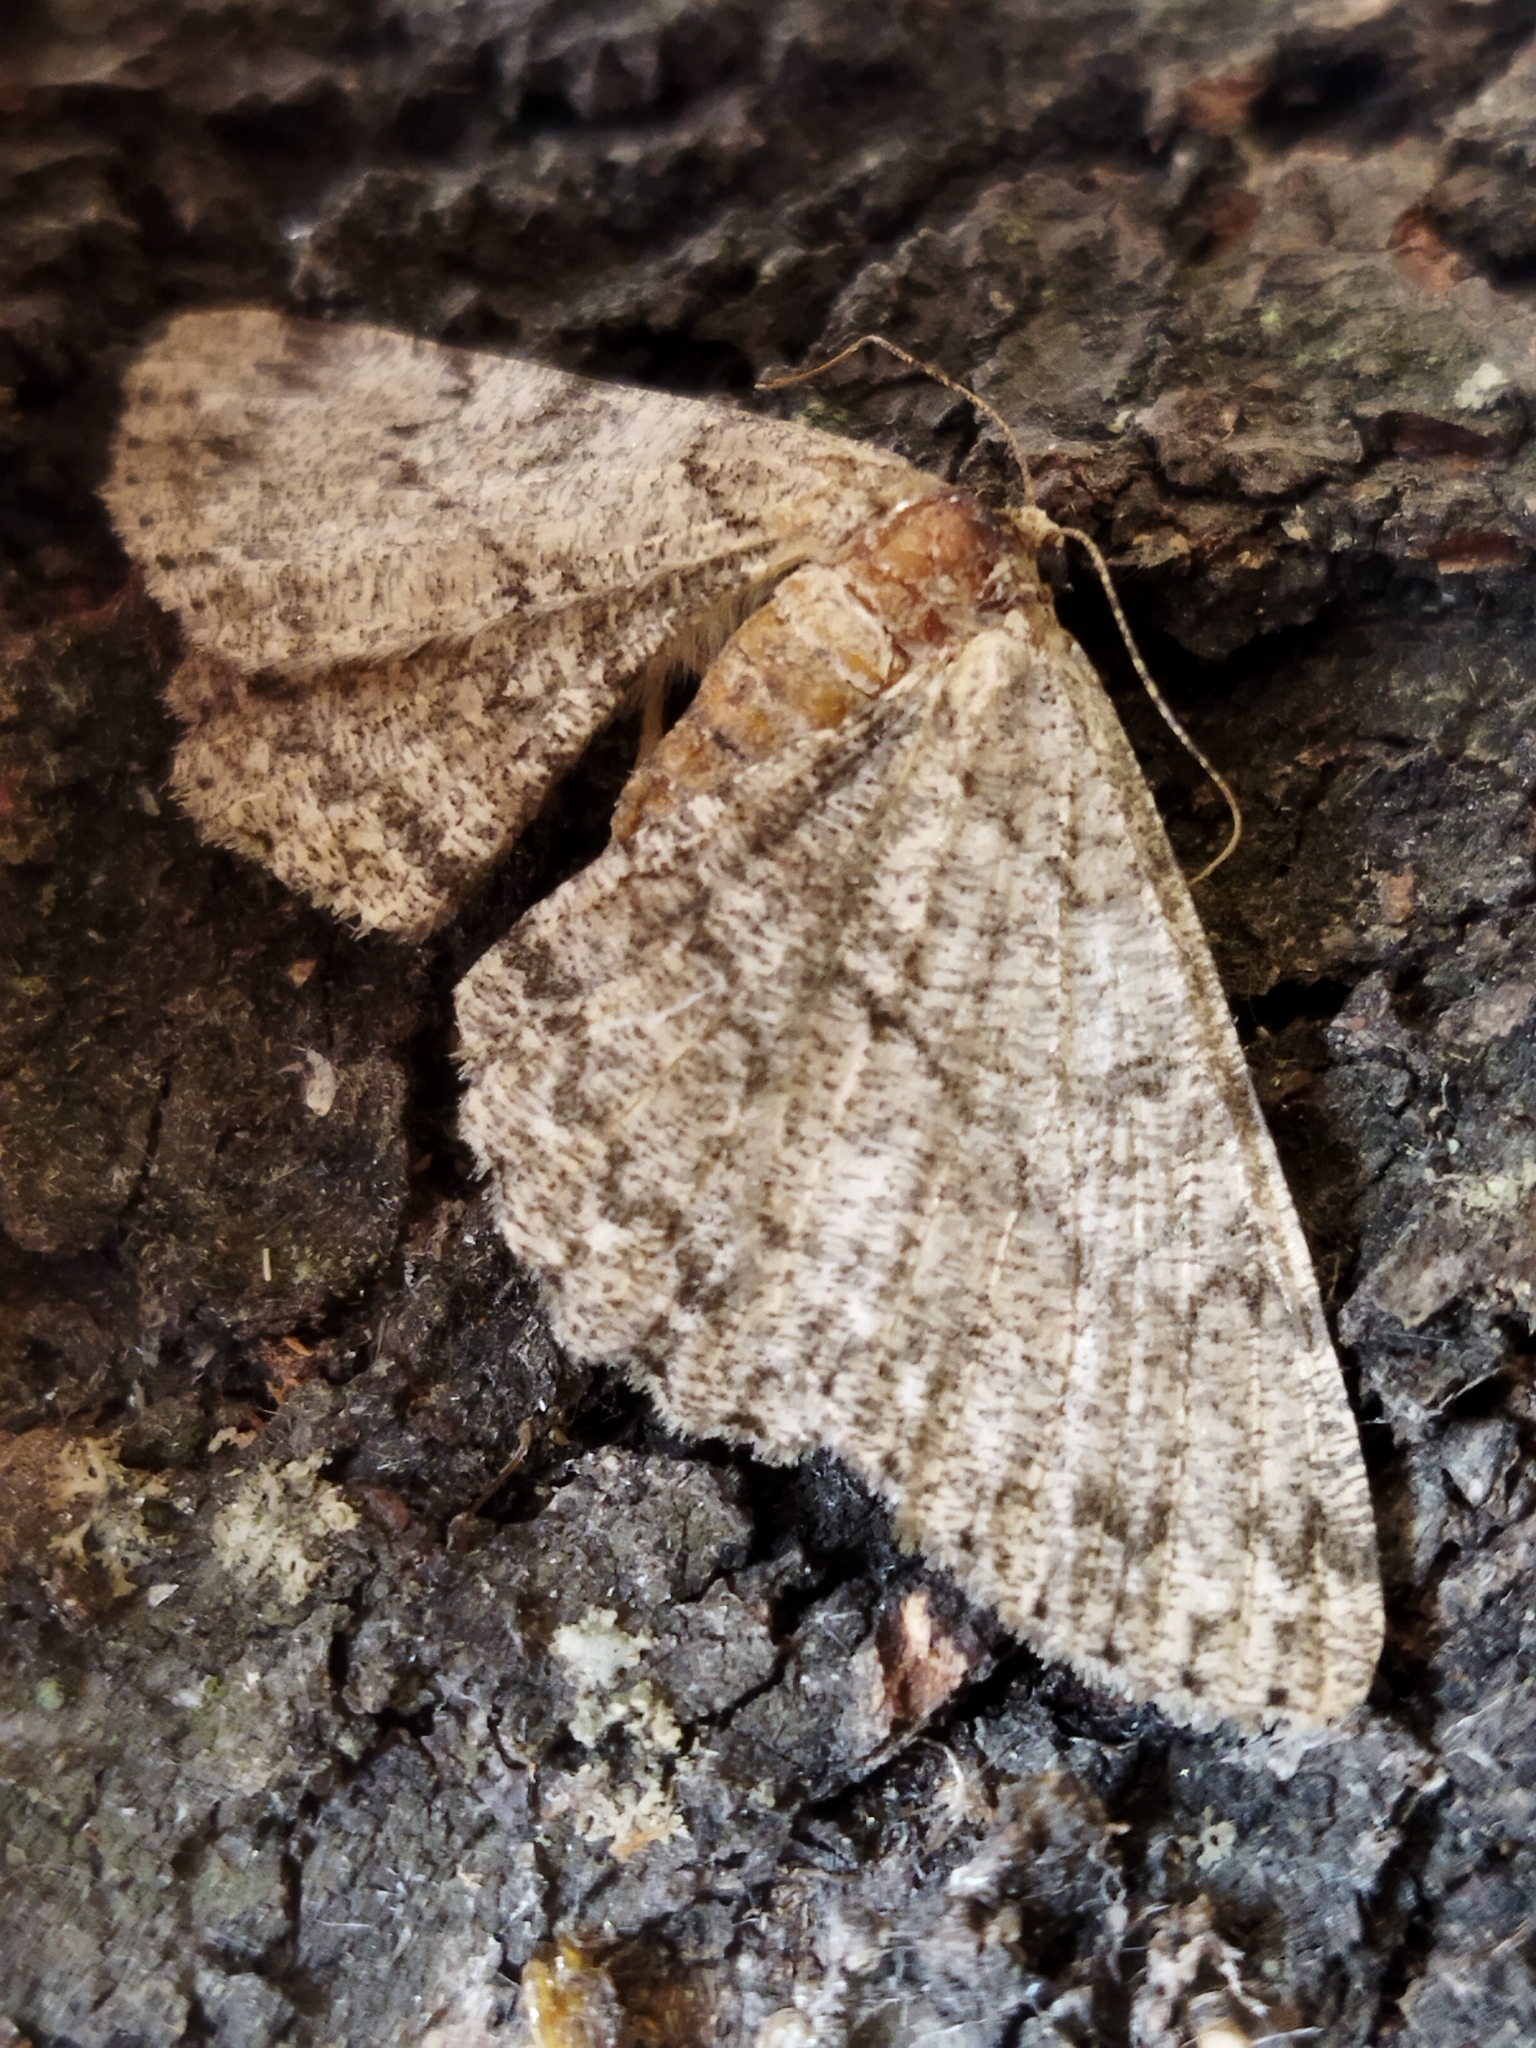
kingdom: Animalia
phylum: Arthropoda
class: Insecta
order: Lepidoptera
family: Geometridae
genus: Hypomecis
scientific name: Hypomecis punctinalis
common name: Pale oak beauty
